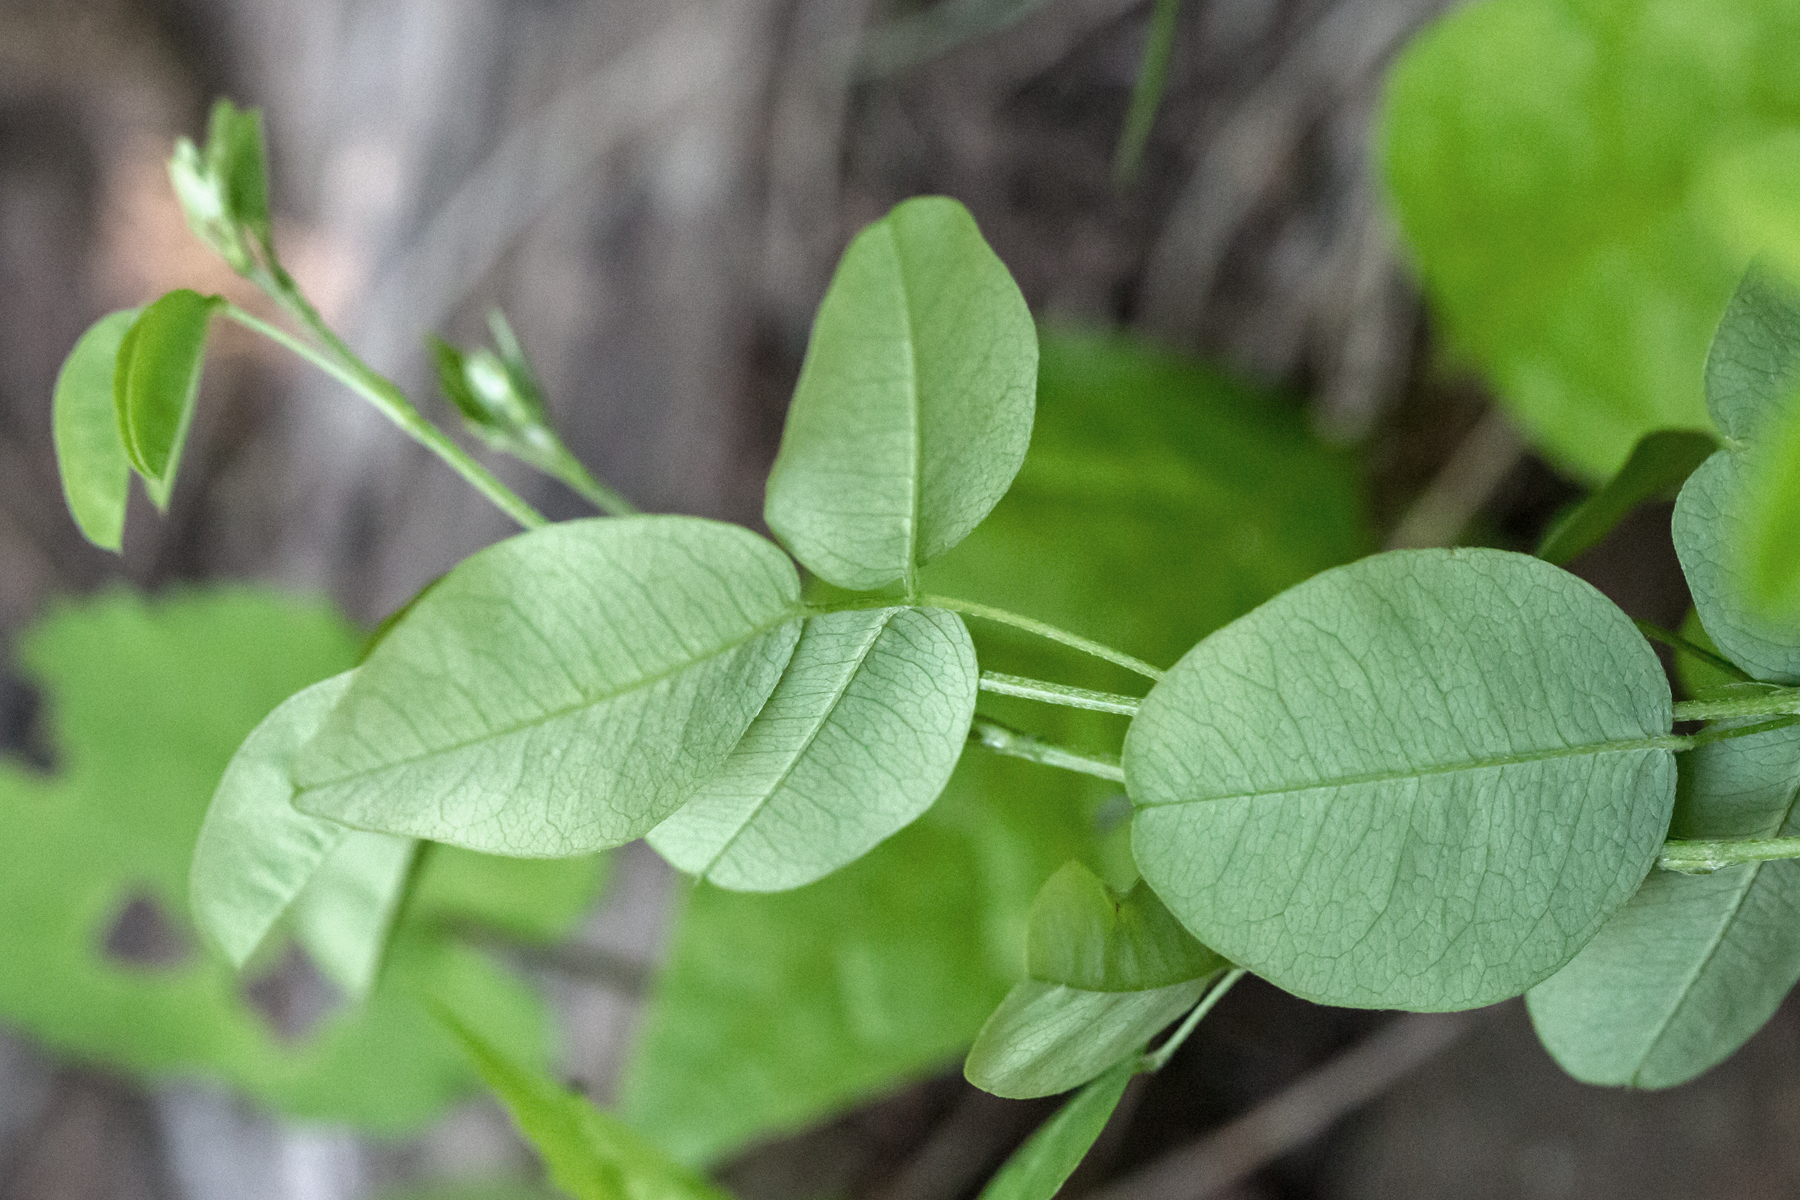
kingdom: Plantae
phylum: Tracheophyta
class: Magnoliopsida
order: Fabales
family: Fabaceae
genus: Lespedeza
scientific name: Lespedeza
